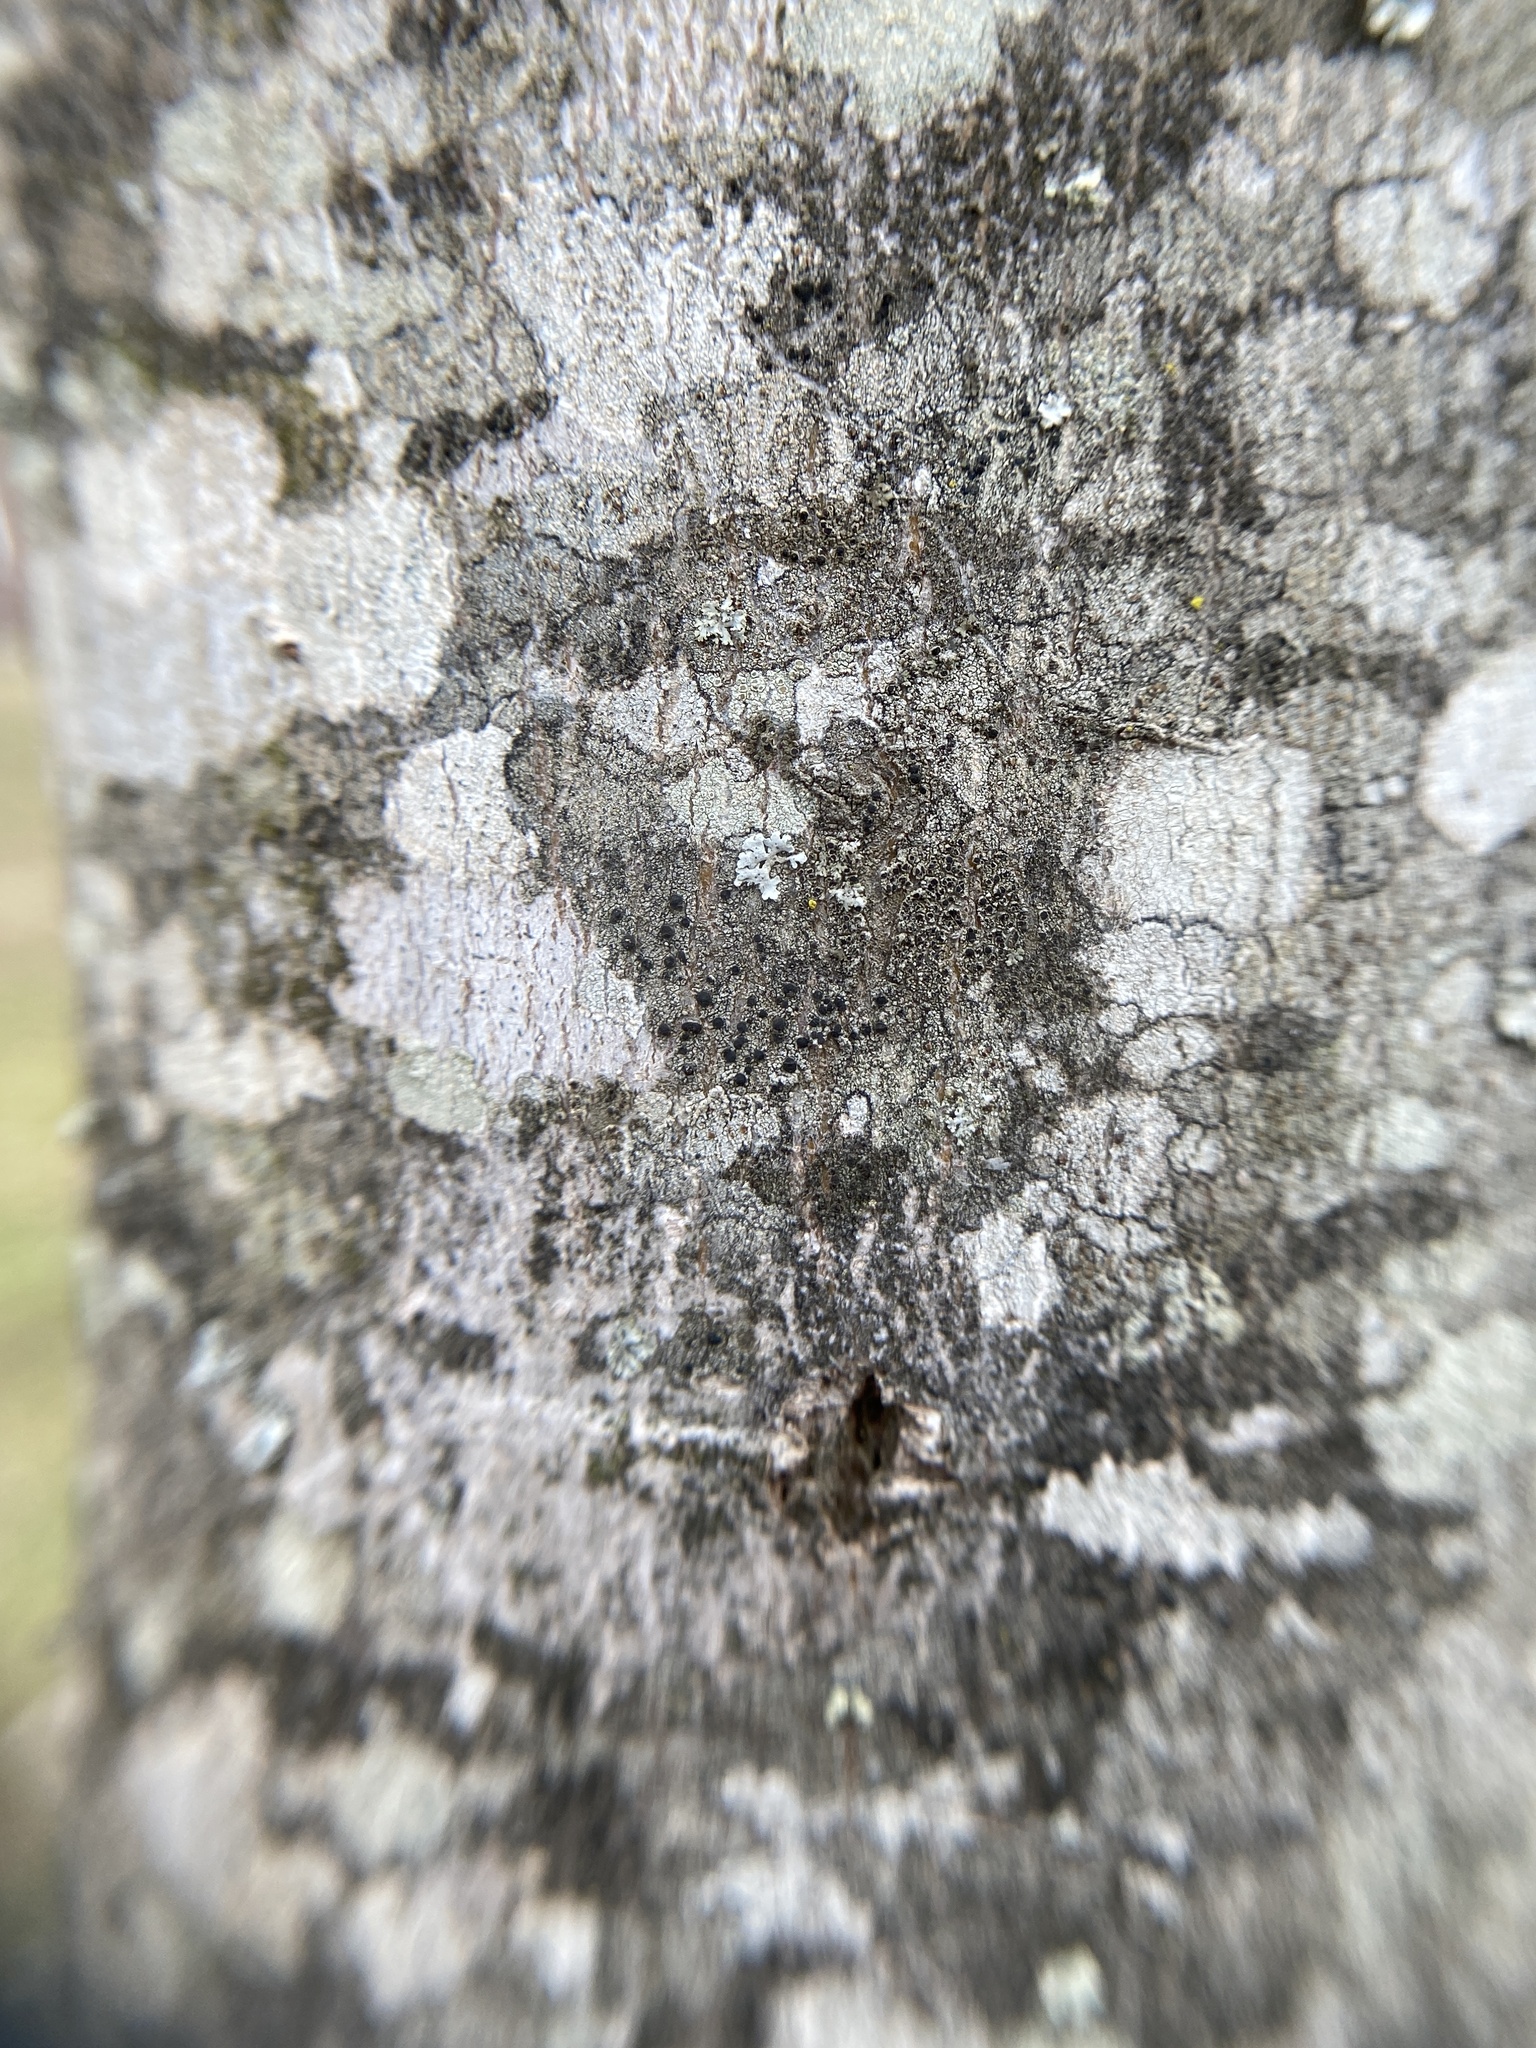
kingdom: Fungi
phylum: Ascomycota
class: Lecanoromycetes
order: Caliciales
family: Caliciaceae
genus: Buellia
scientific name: Buellia erubescens
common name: Common button lichen
